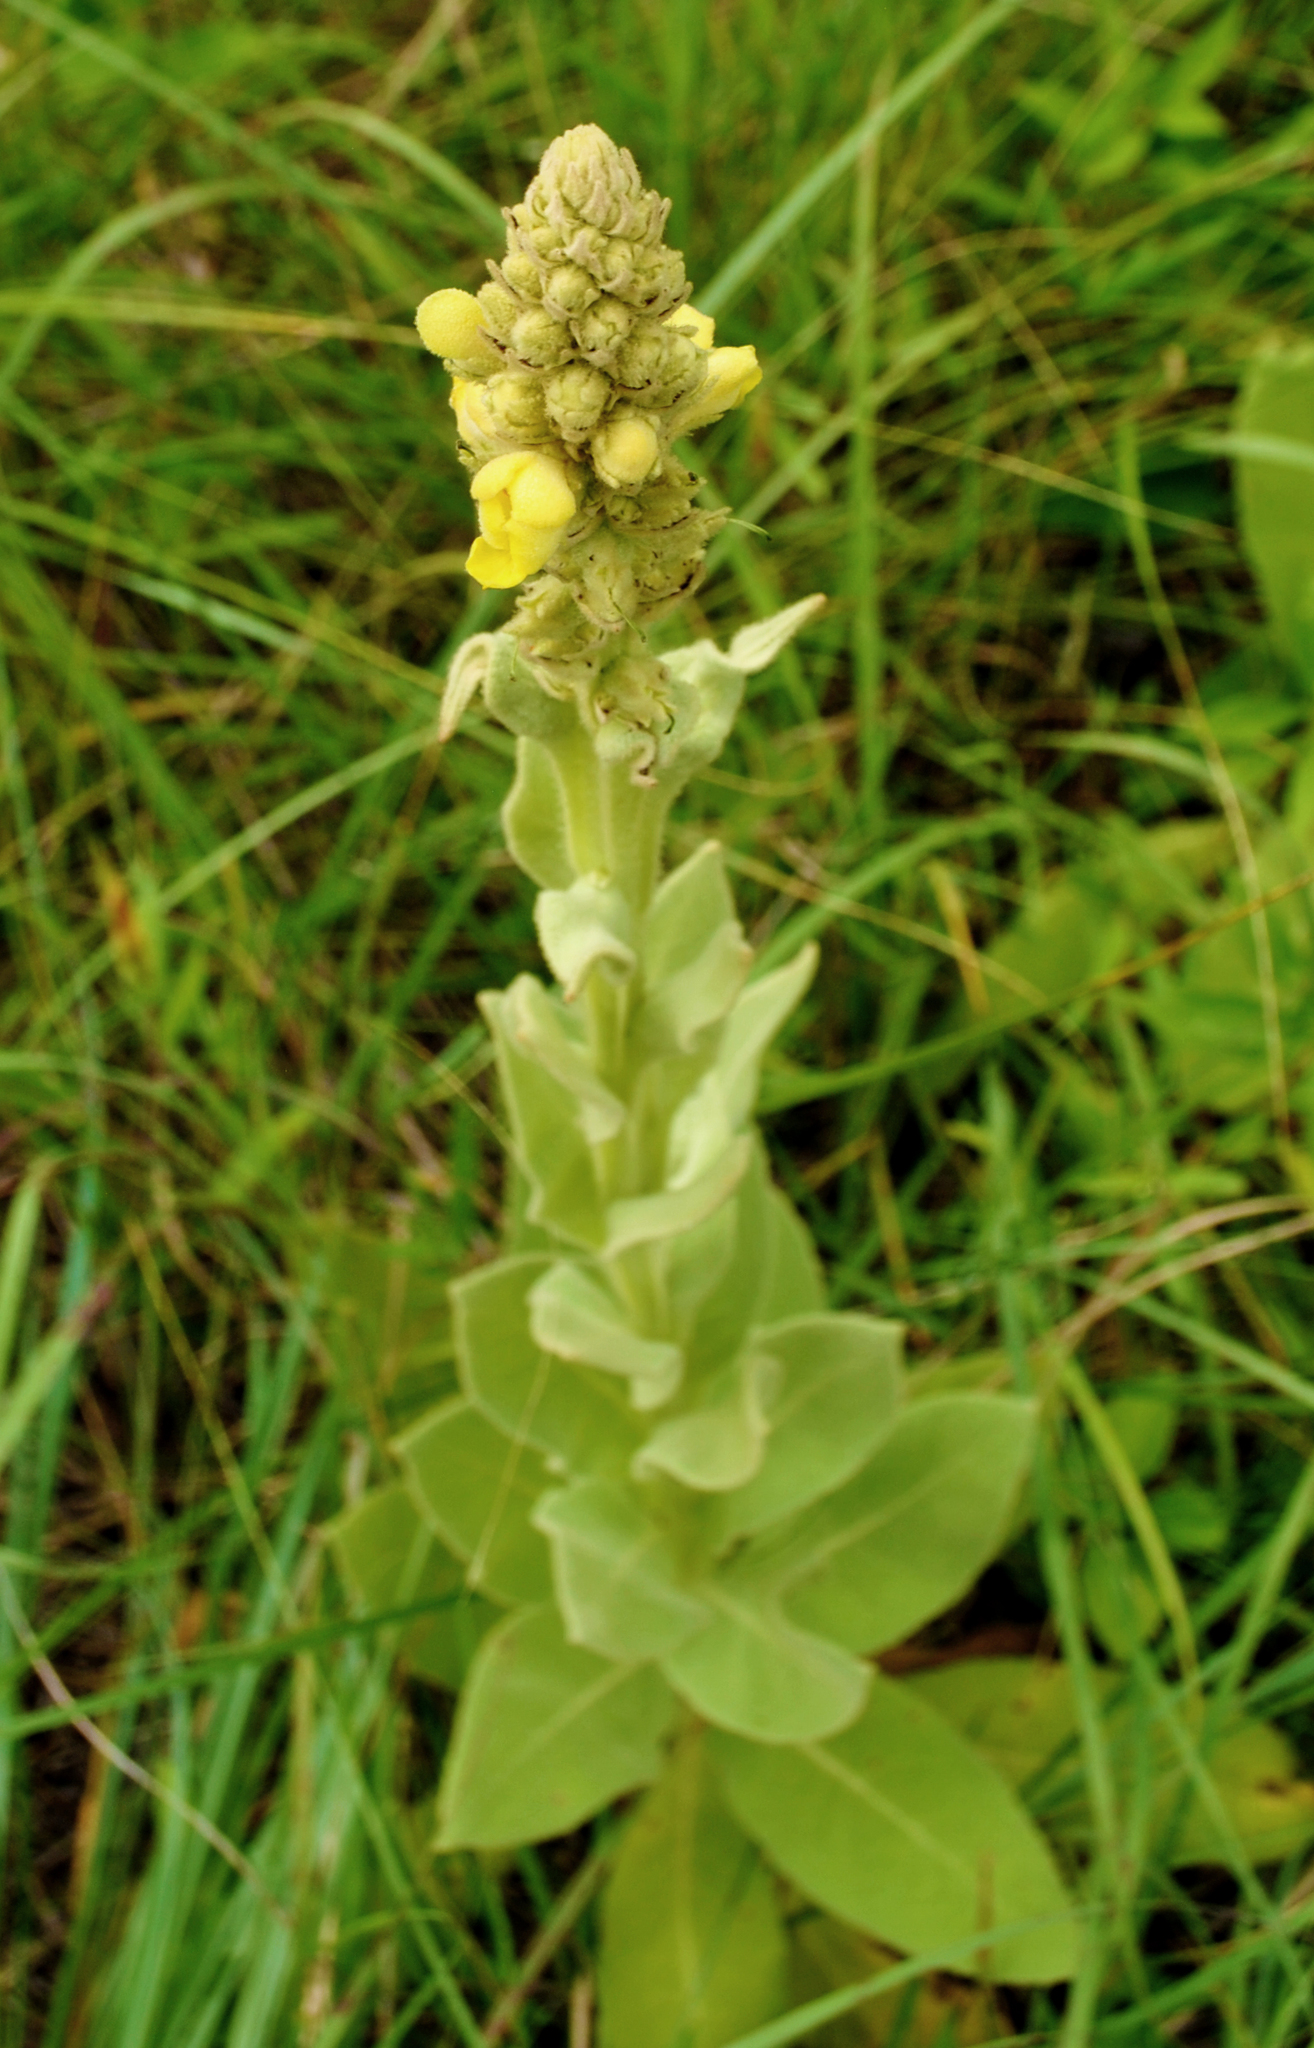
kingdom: Plantae
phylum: Tracheophyta
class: Magnoliopsida
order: Lamiales
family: Scrophulariaceae
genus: Verbascum
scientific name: Verbascum thapsus
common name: Common mullein
